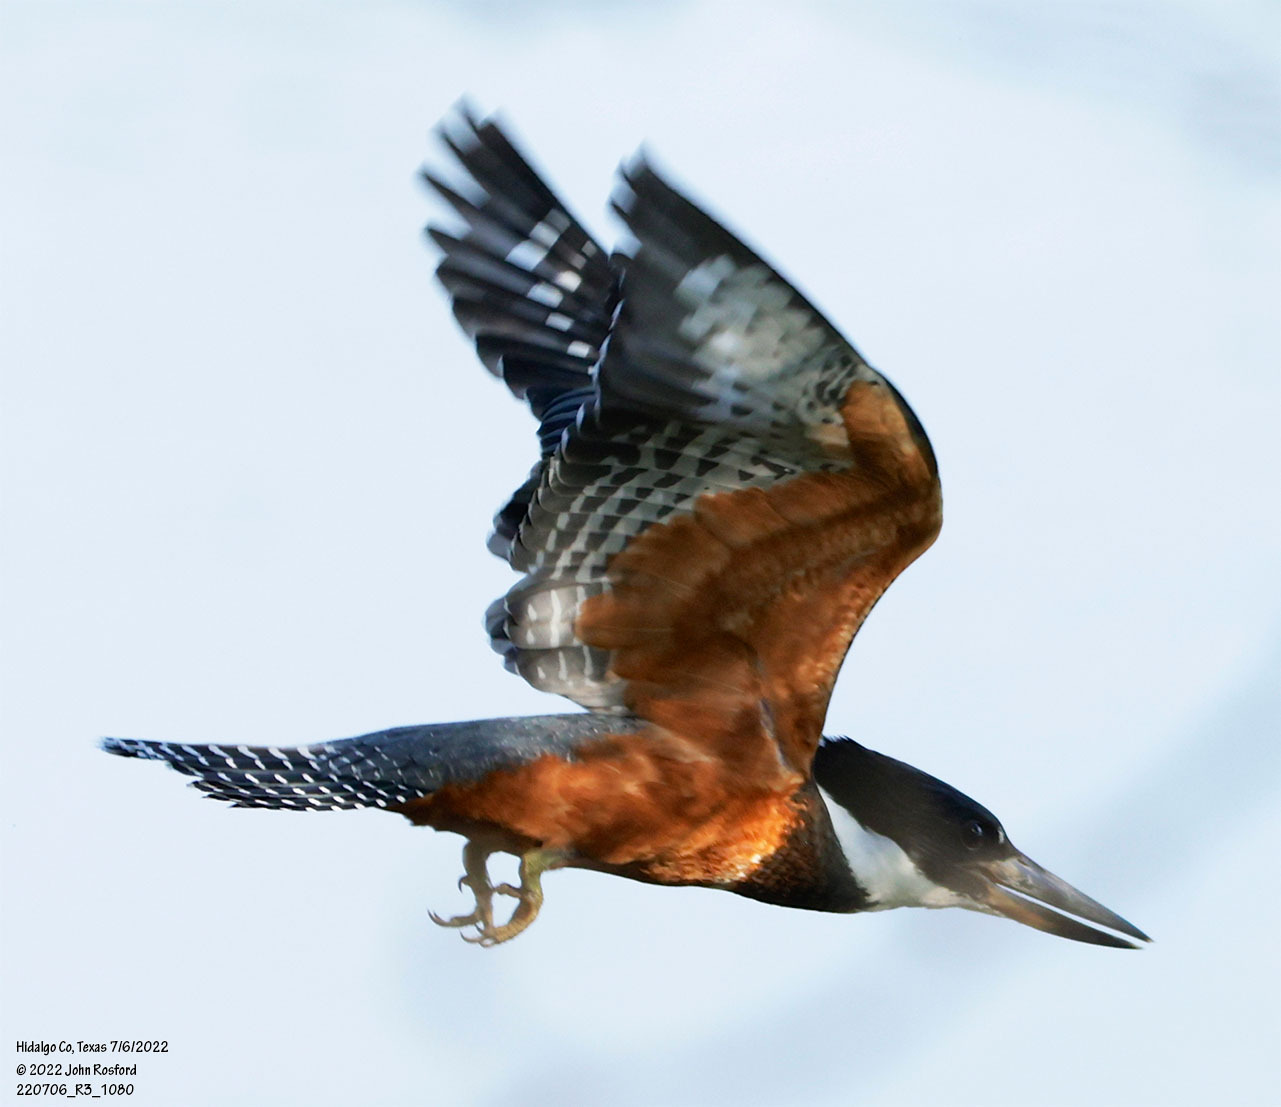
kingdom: Animalia
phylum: Chordata
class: Aves
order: Coraciiformes
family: Alcedinidae
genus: Megaceryle
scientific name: Megaceryle torquata
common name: Ringed kingfisher
